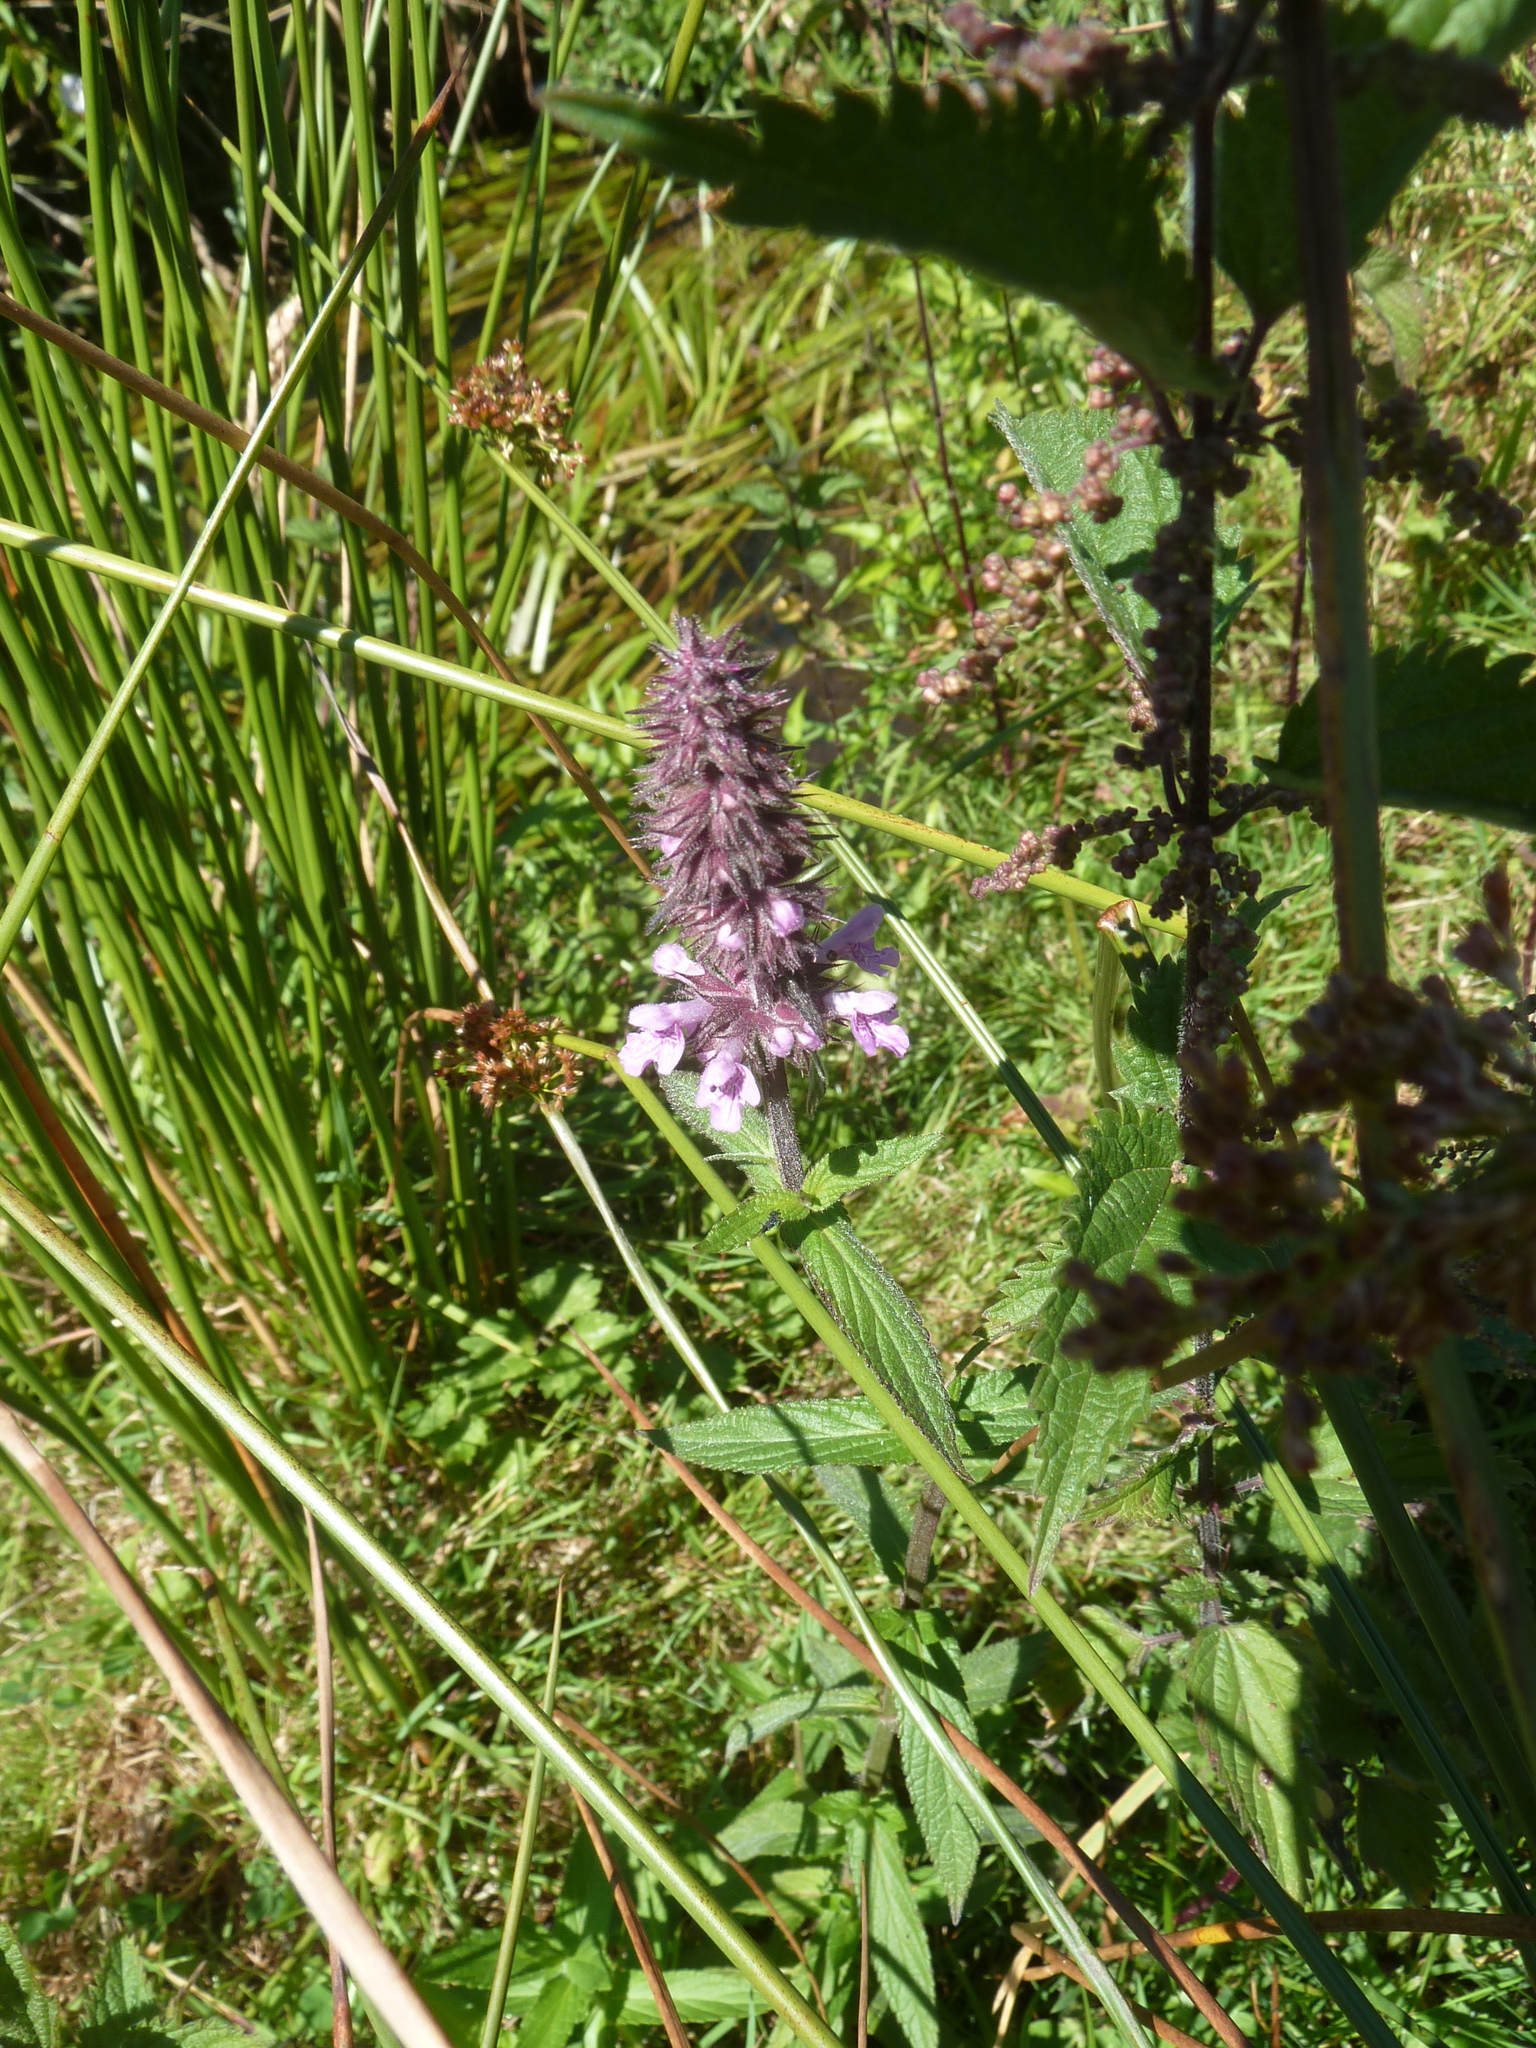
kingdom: Plantae
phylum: Tracheophyta
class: Magnoliopsida
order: Lamiales
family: Lamiaceae
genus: Stachys
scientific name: Stachys palustris
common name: Marsh woundwort
